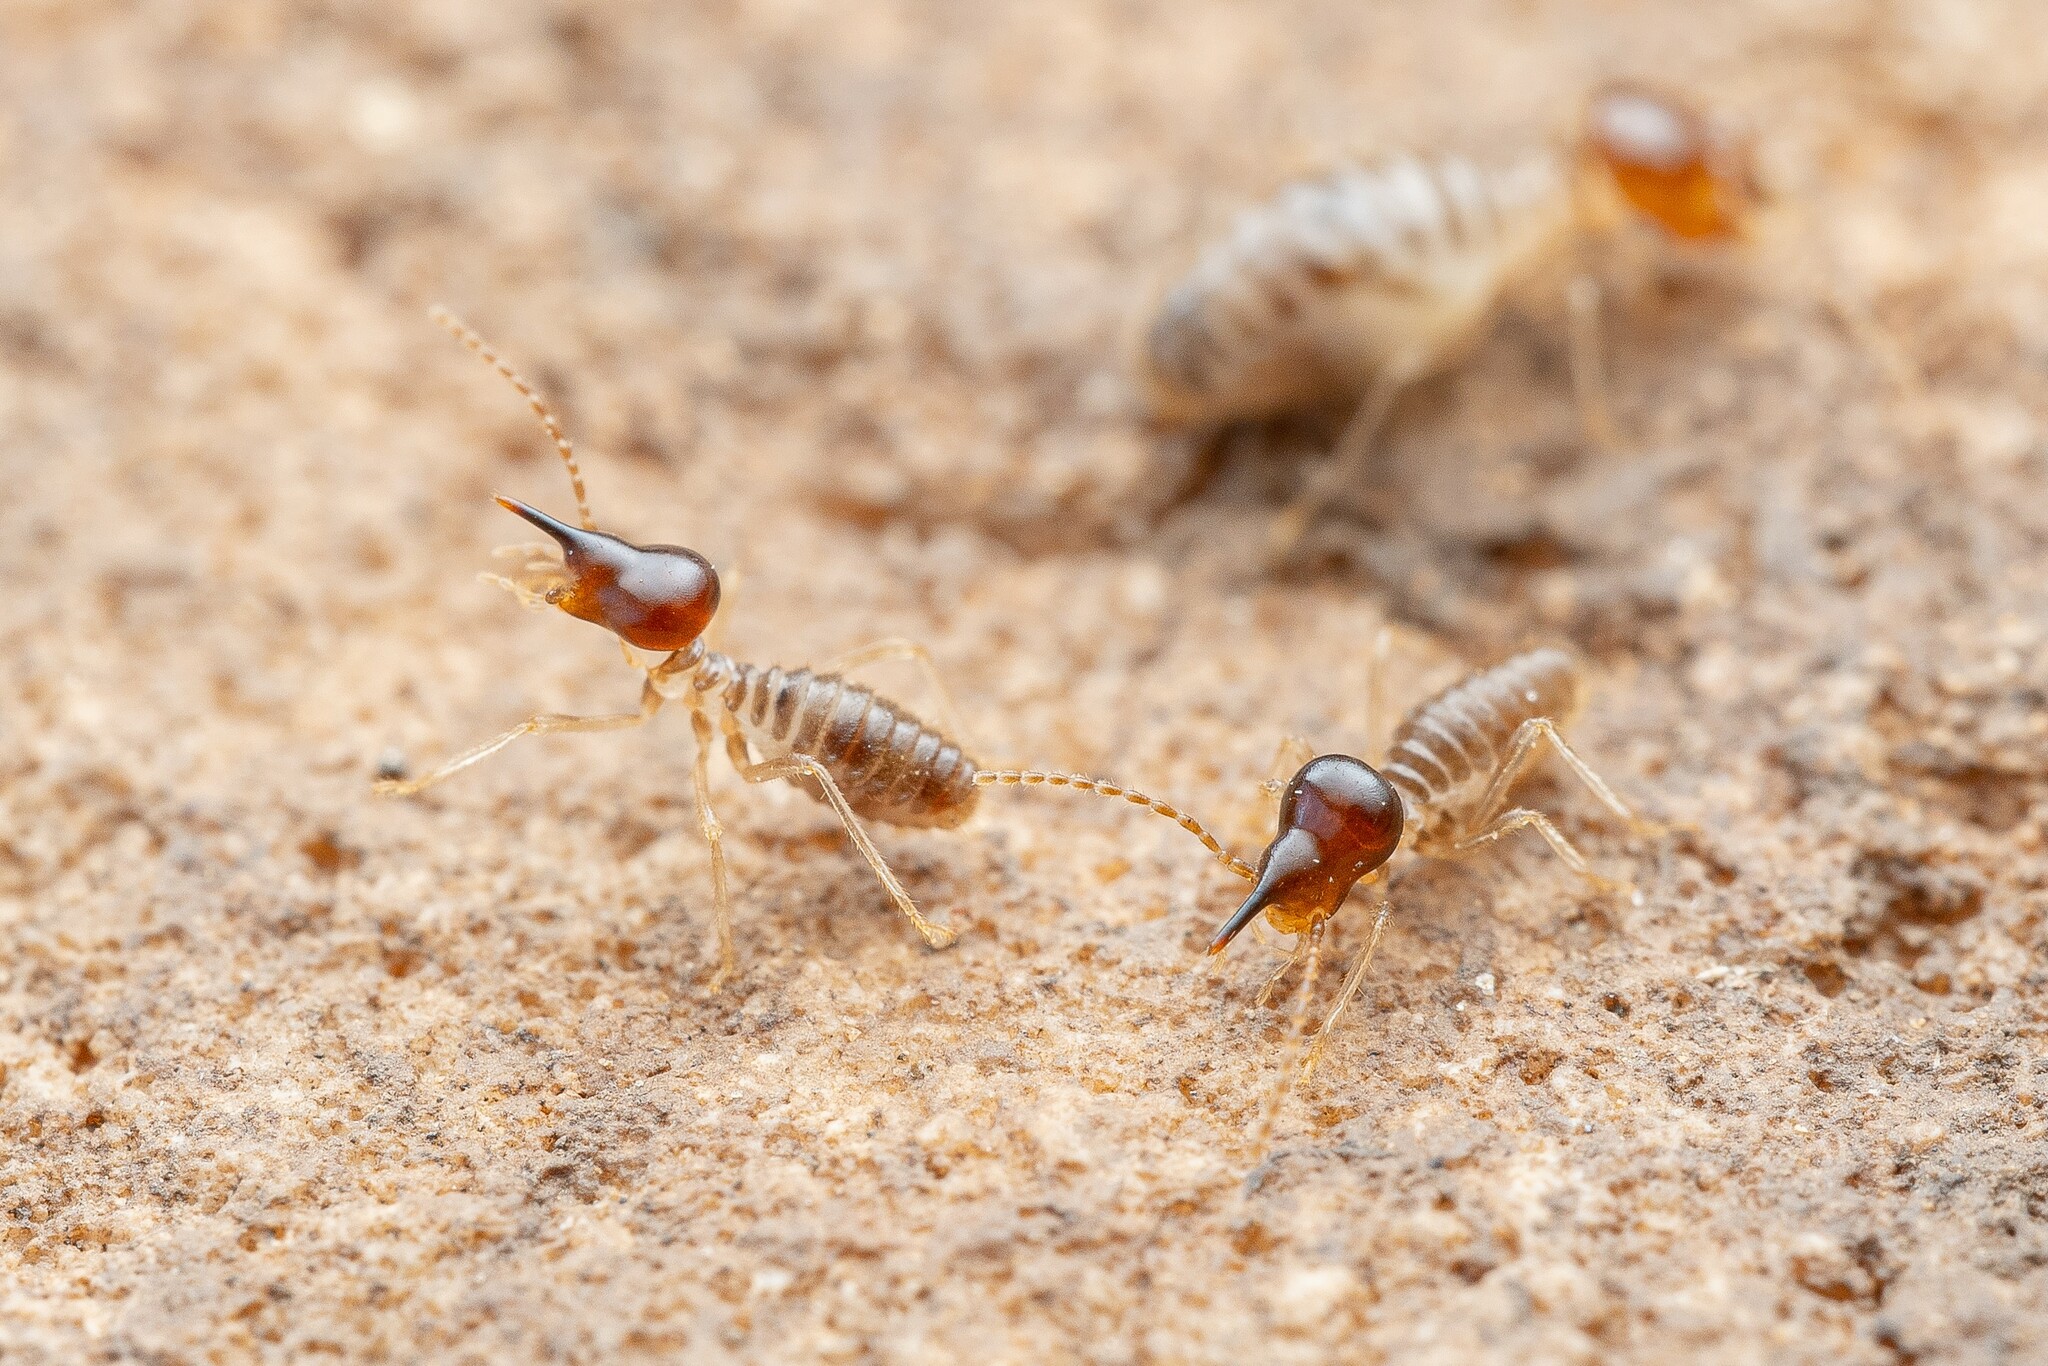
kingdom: Animalia
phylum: Arthropoda
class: Insecta
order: Blattodea
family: Termitidae
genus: Tenuirostritermes
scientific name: Tenuirostritermes tenuirostris
